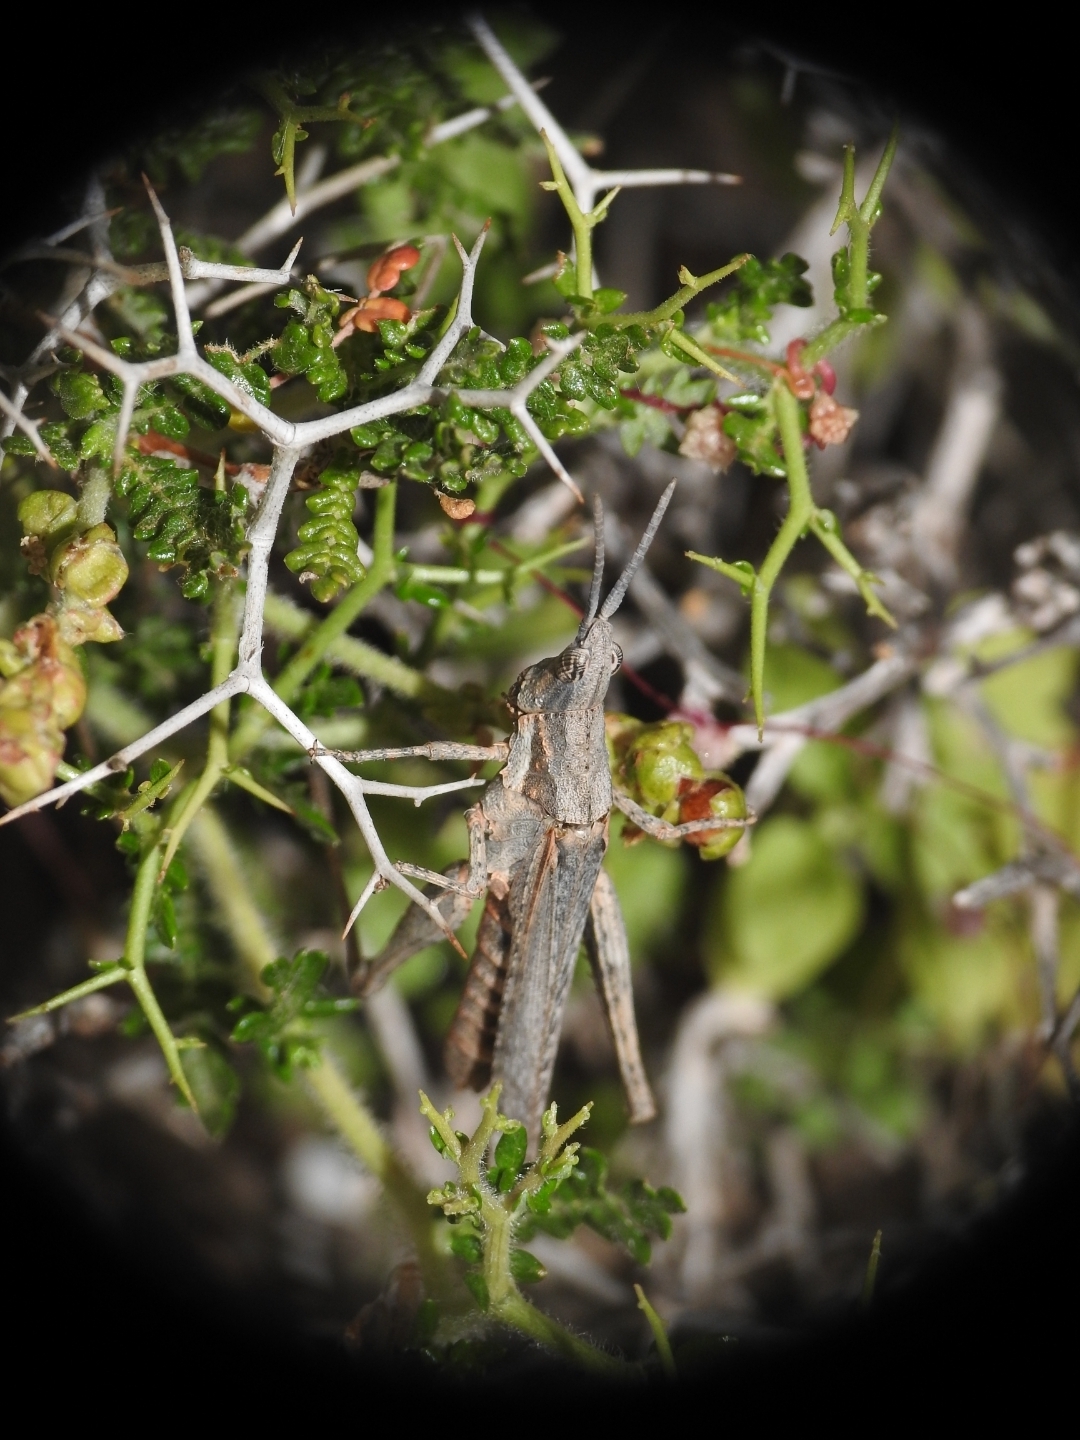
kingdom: Animalia
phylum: Arthropoda
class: Insecta
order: Orthoptera
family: Pyrgomorphidae
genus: Pyrgomorpha
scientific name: Pyrgomorpha conica
